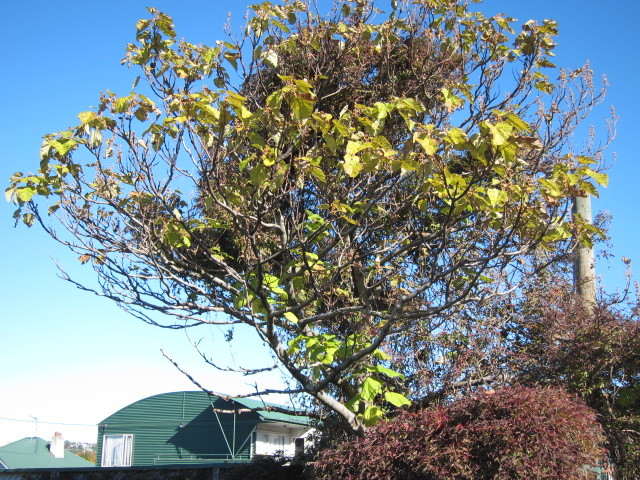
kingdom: Plantae
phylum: Tracheophyta
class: Magnoliopsida
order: Lamiales
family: Paulowniaceae
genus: Paulownia
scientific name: Paulownia tomentosa
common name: Foxglove-tree
